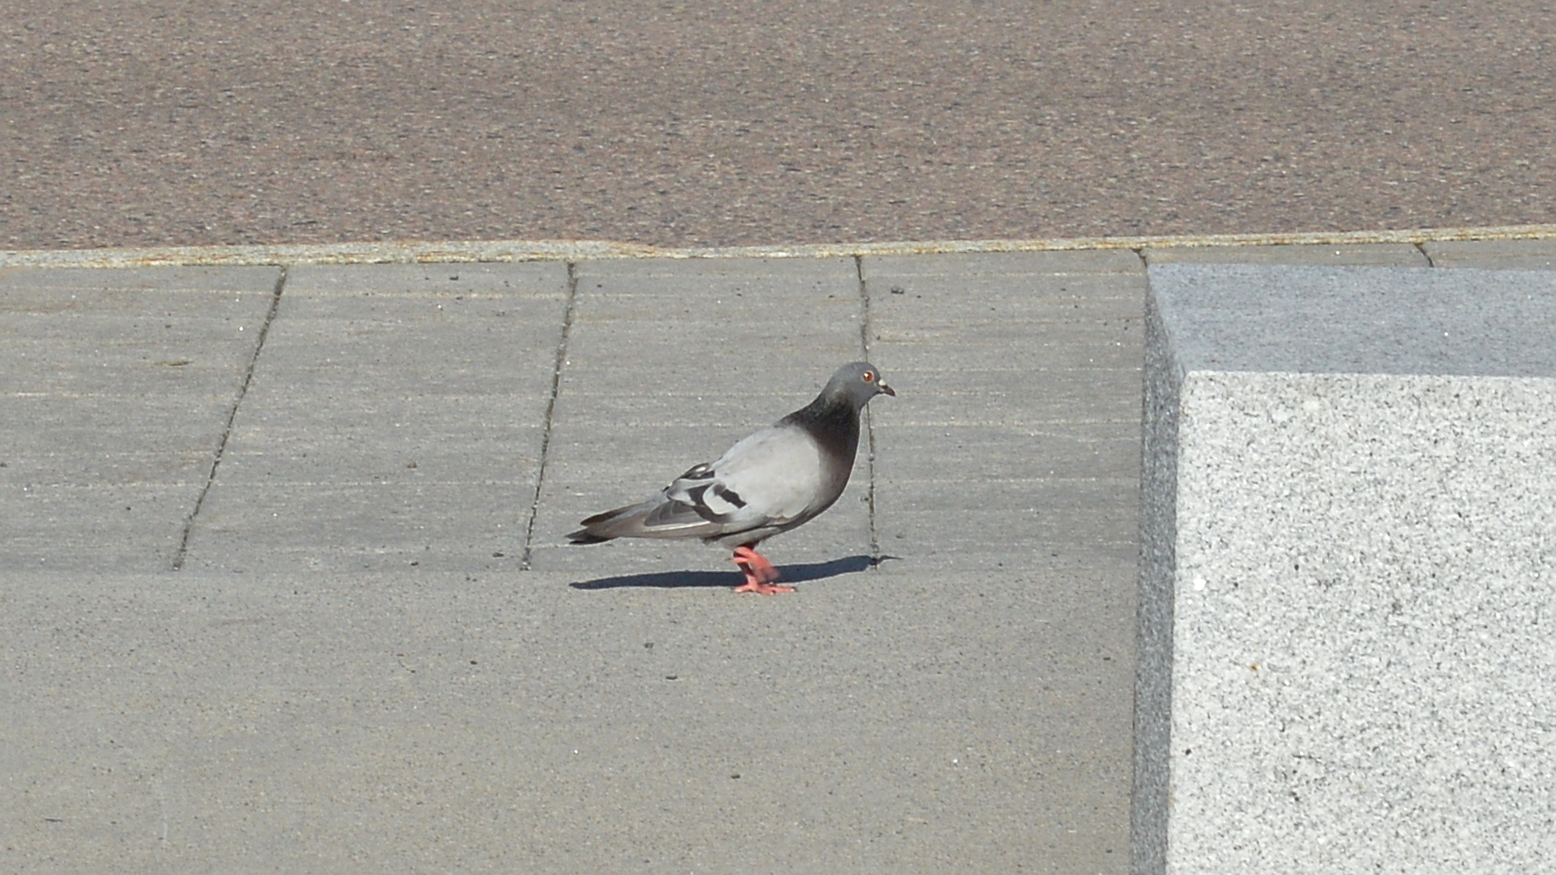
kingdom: Animalia
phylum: Chordata
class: Aves
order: Columbiformes
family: Columbidae
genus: Columba
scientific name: Columba livia
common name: Rock pigeon
